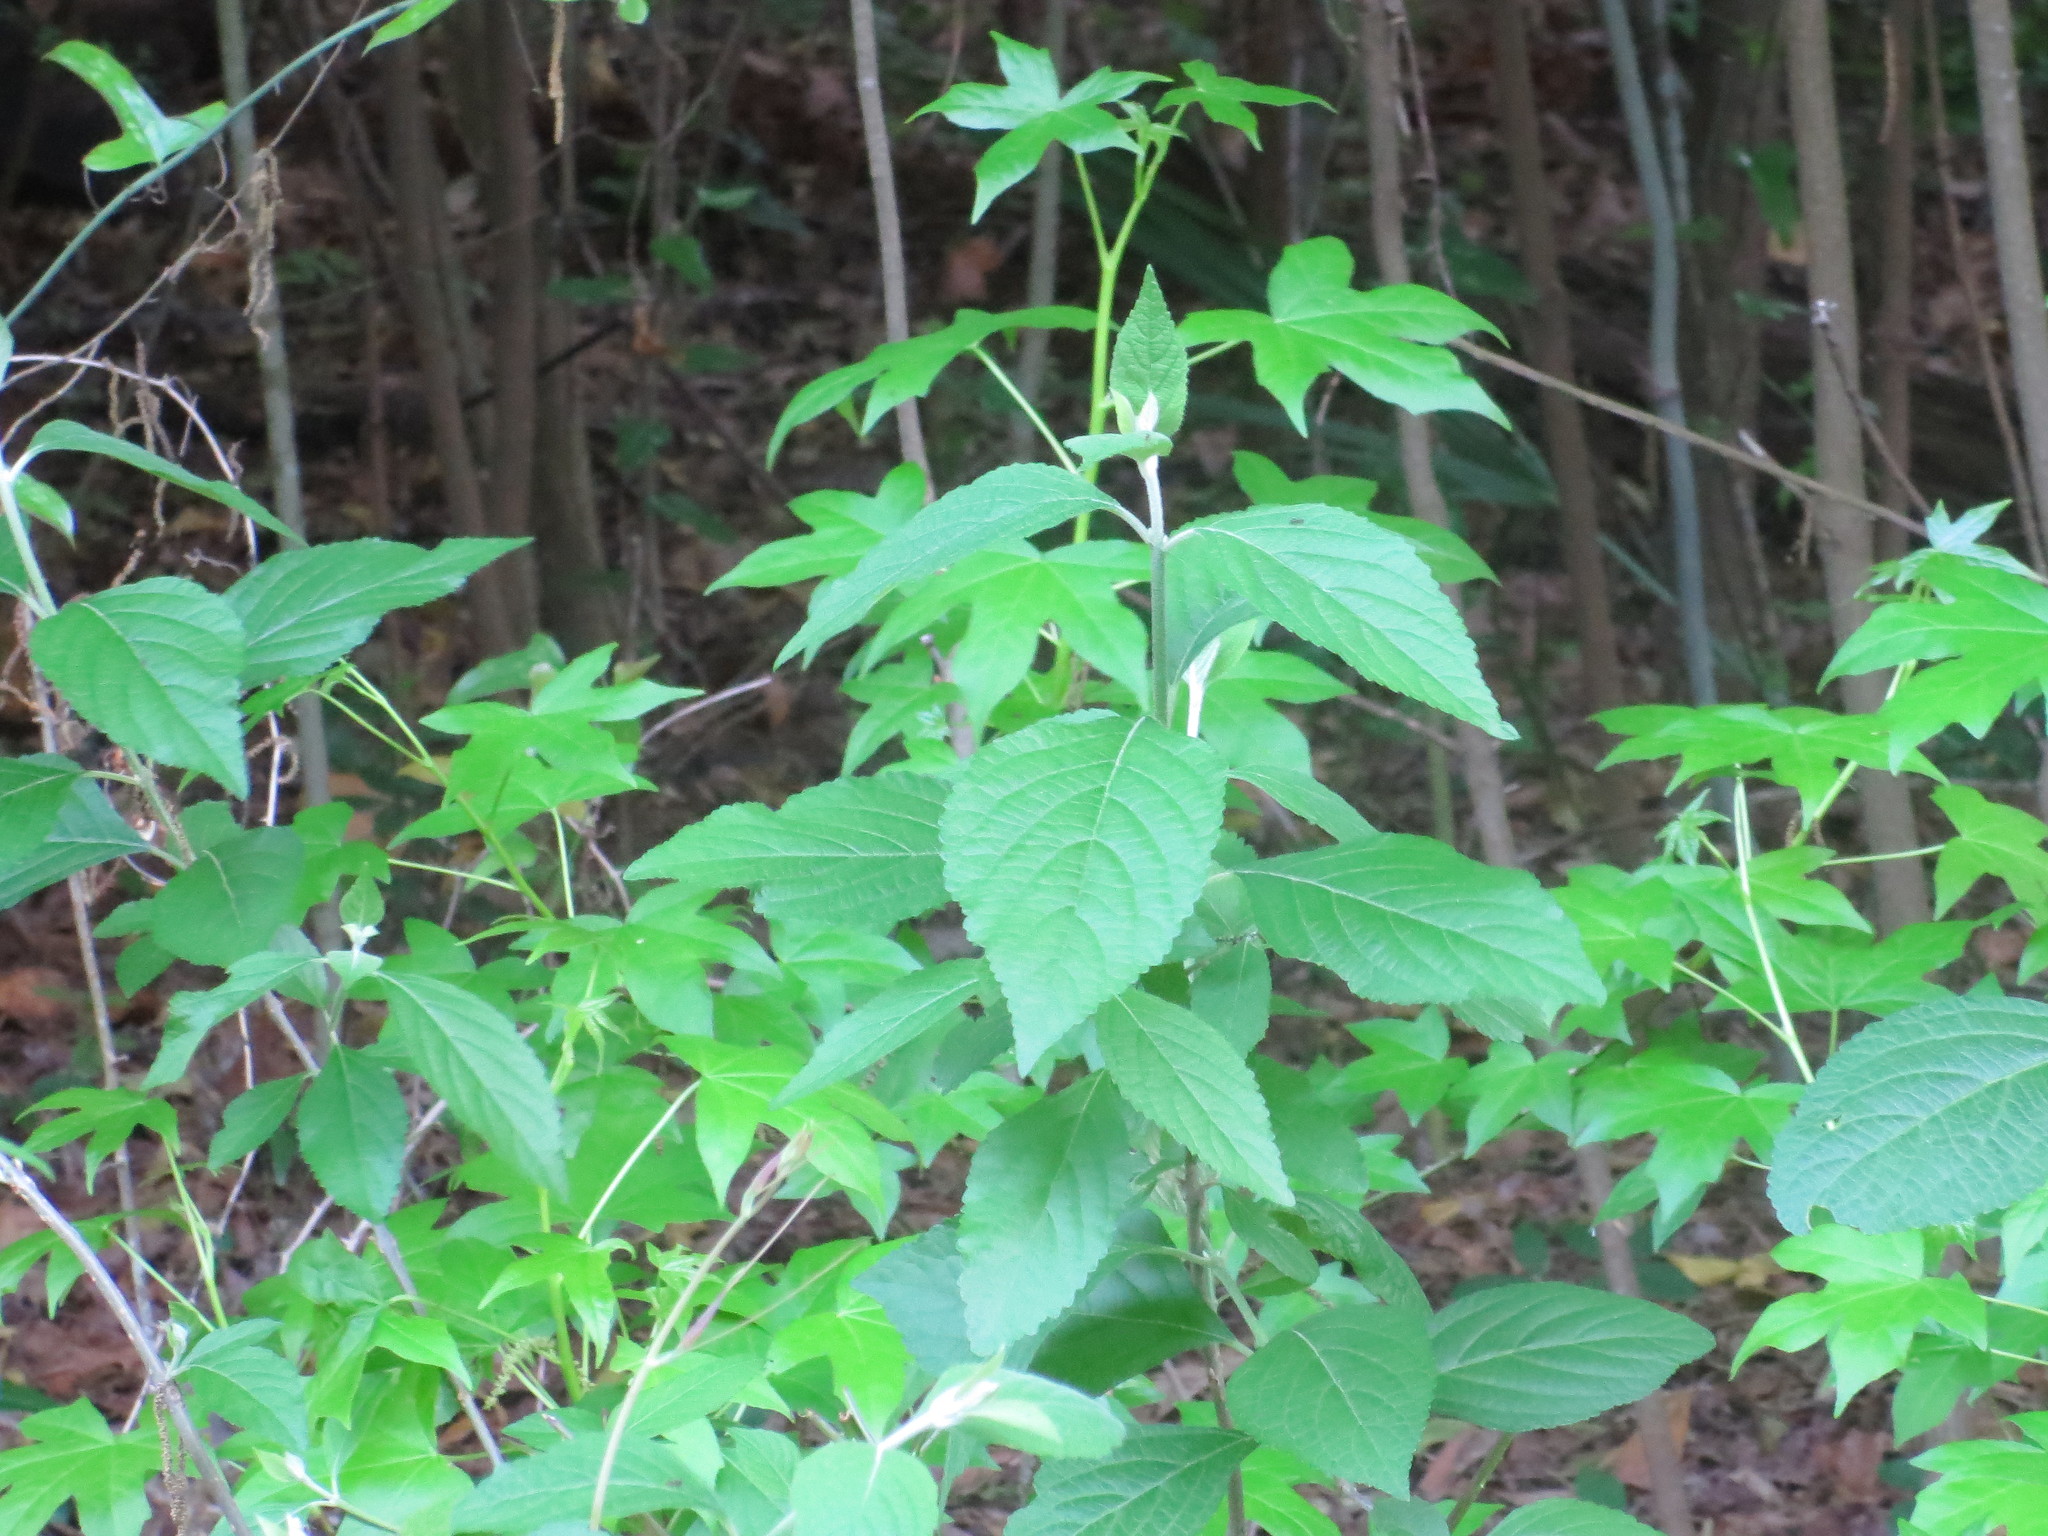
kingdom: Plantae
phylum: Tracheophyta
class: Magnoliopsida
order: Lamiales
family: Lamiaceae
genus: Callicarpa
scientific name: Callicarpa americana
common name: American beautyberry
